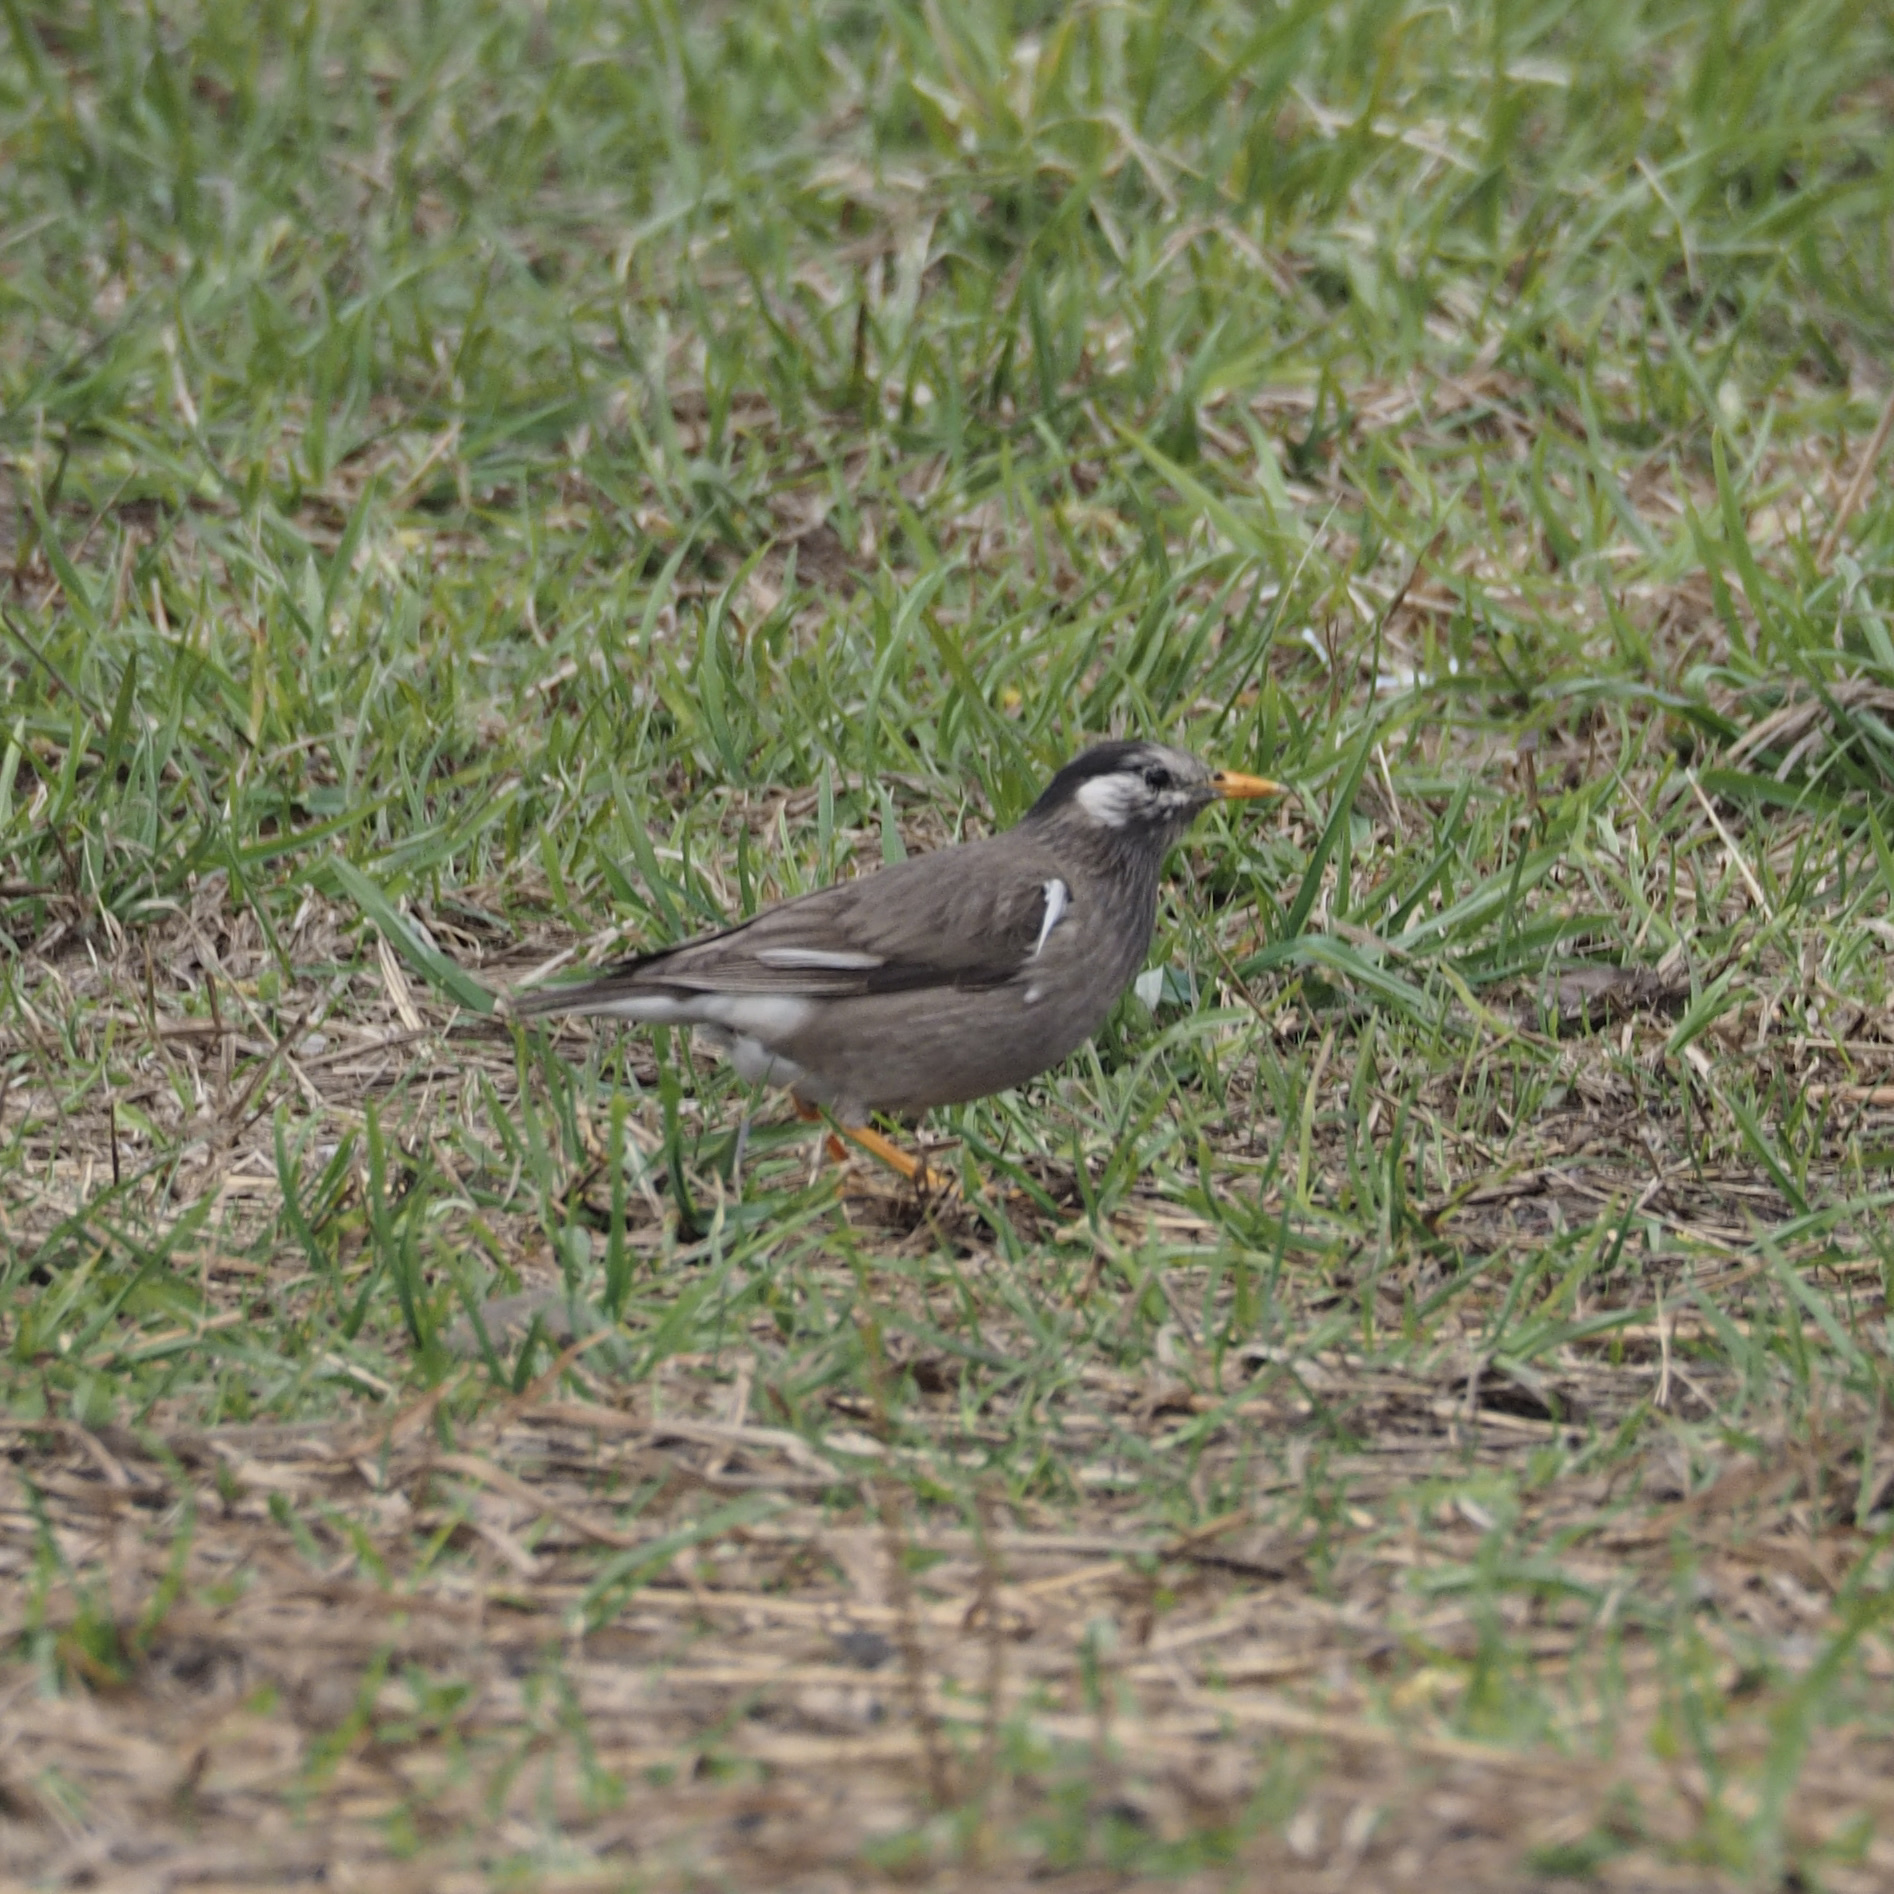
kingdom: Animalia
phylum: Chordata
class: Aves
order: Passeriformes
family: Sturnidae
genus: Spodiopsar
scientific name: Spodiopsar cineraceus
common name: White-cheeked starling
